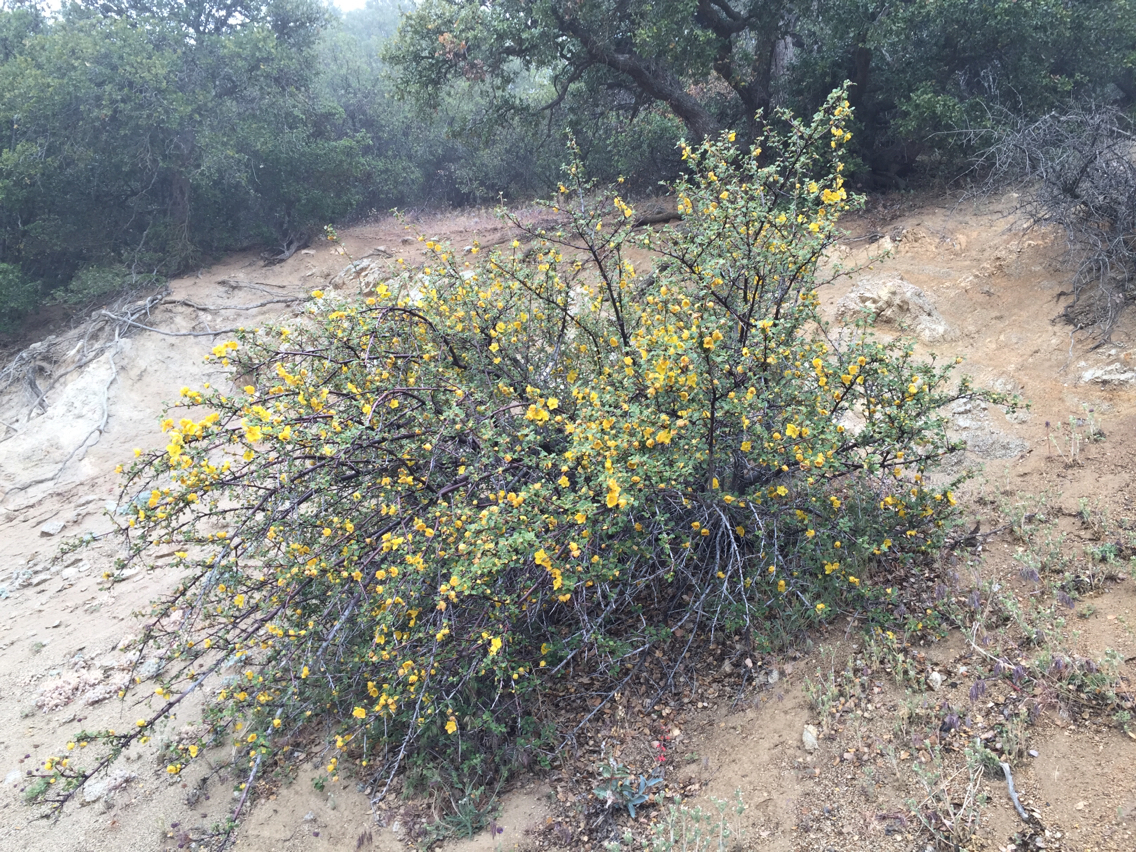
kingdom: Plantae
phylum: Tracheophyta
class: Magnoliopsida
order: Malvales
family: Malvaceae
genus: Fremontodendron
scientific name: Fremontodendron californicum
